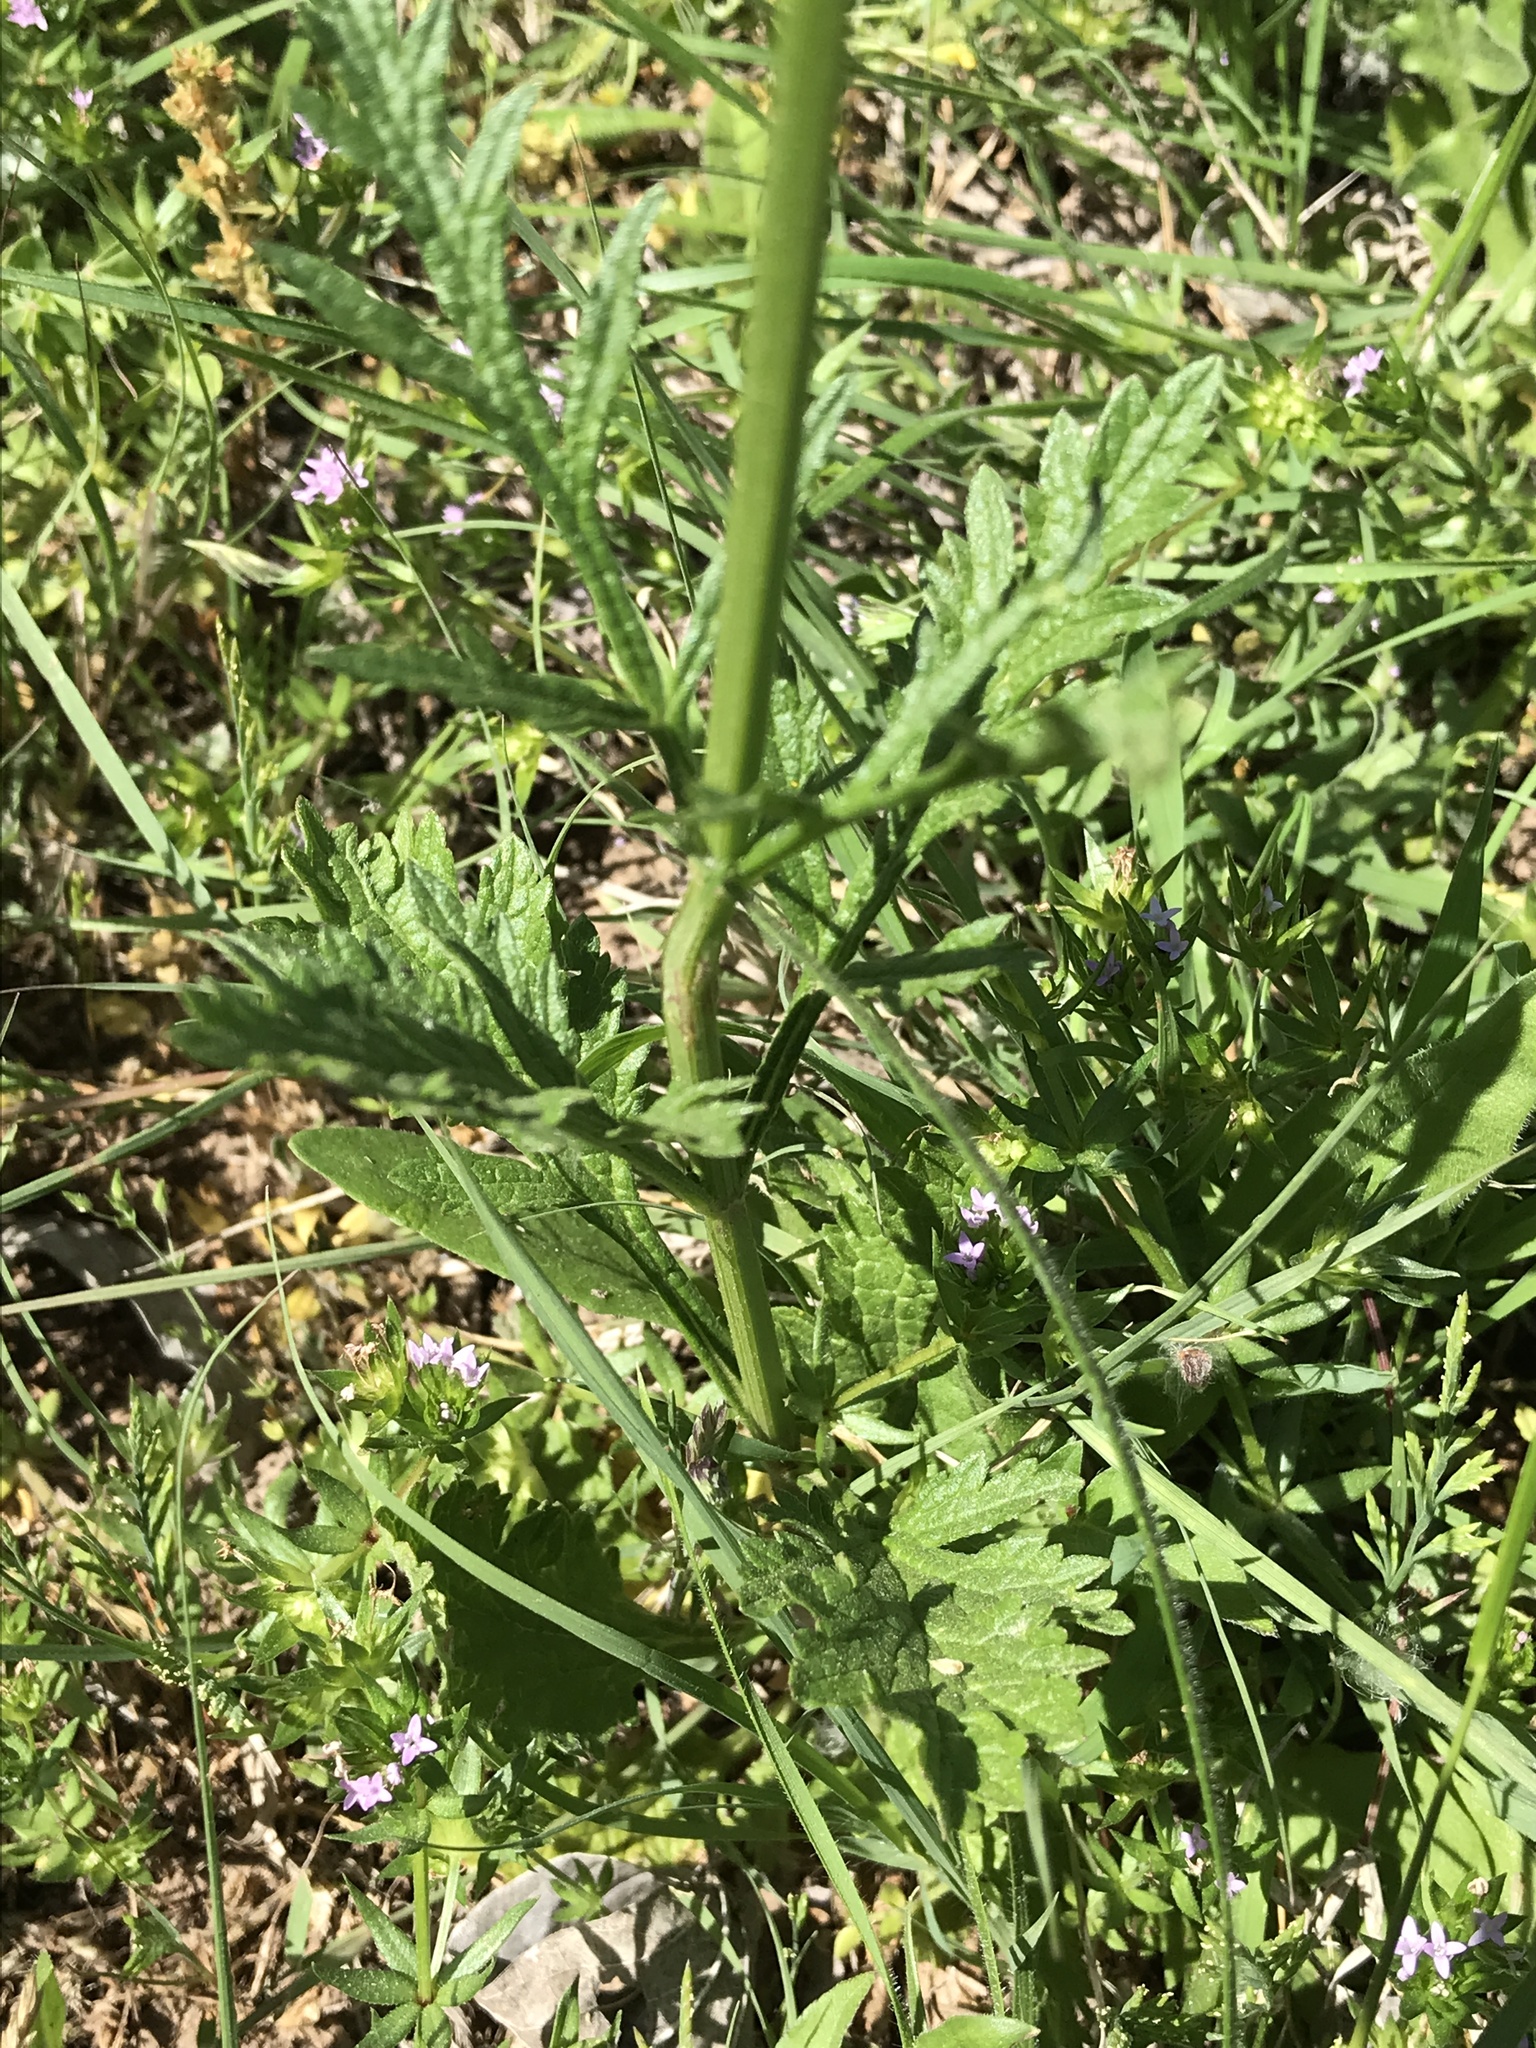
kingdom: Plantae
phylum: Tracheophyta
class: Magnoliopsida
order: Lamiales
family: Verbenaceae
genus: Verbena
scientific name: Verbena halei
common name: Texas vervain
